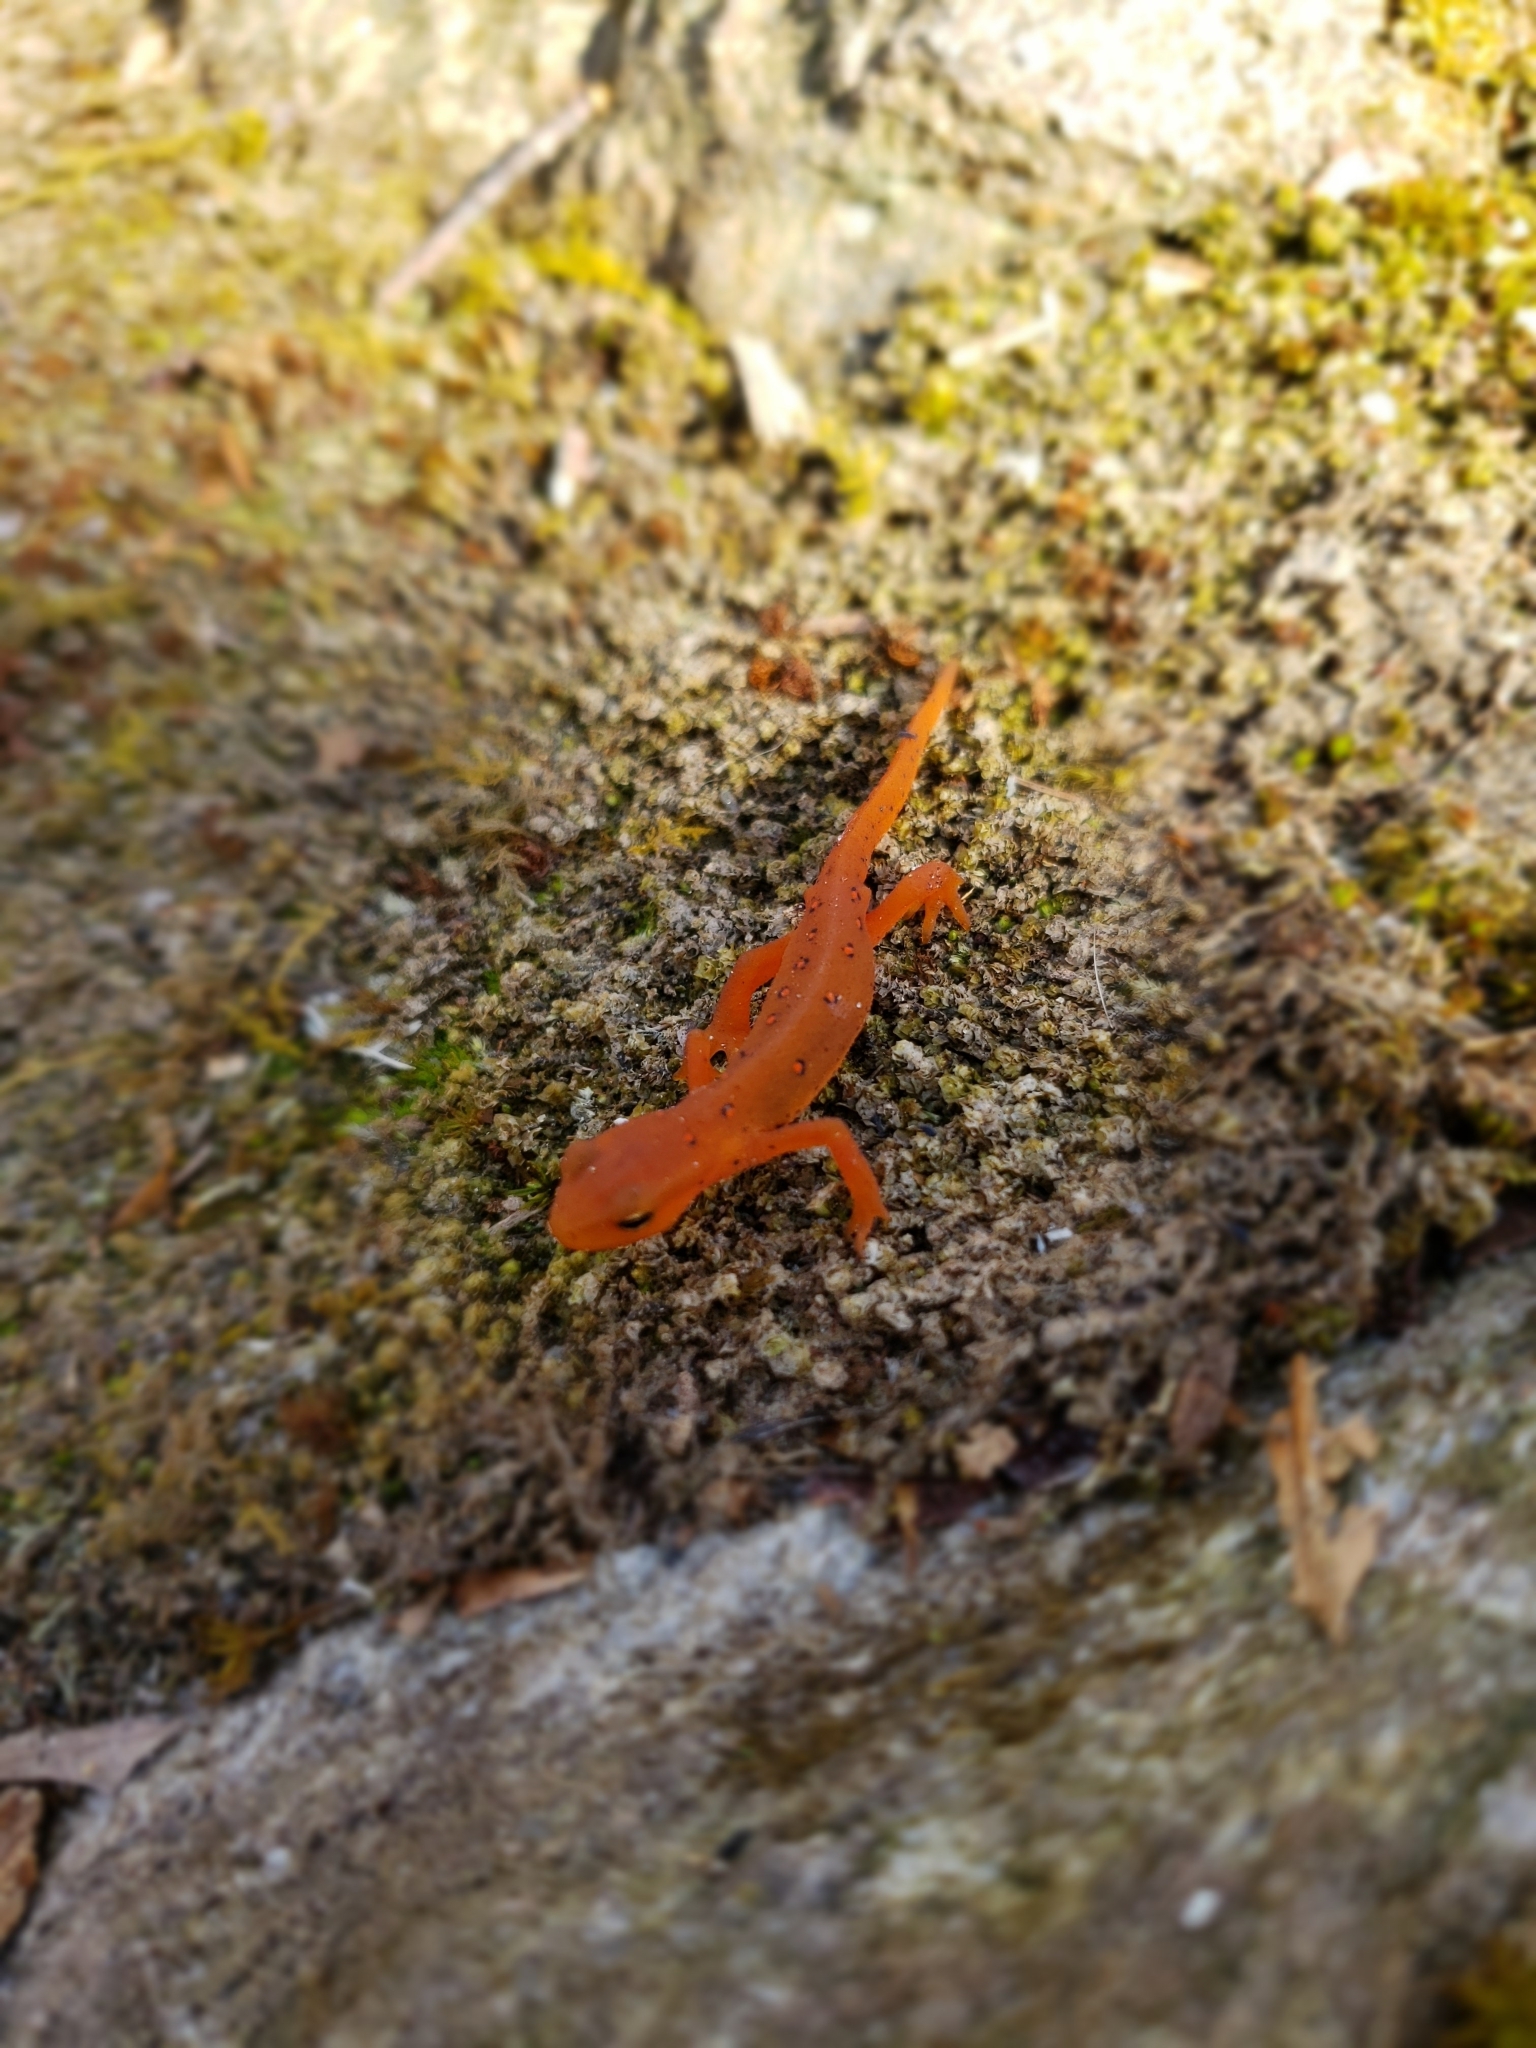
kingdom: Animalia
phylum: Chordata
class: Amphibia
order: Caudata
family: Salamandridae
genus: Notophthalmus
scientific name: Notophthalmus viridescens
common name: Eastern newt
